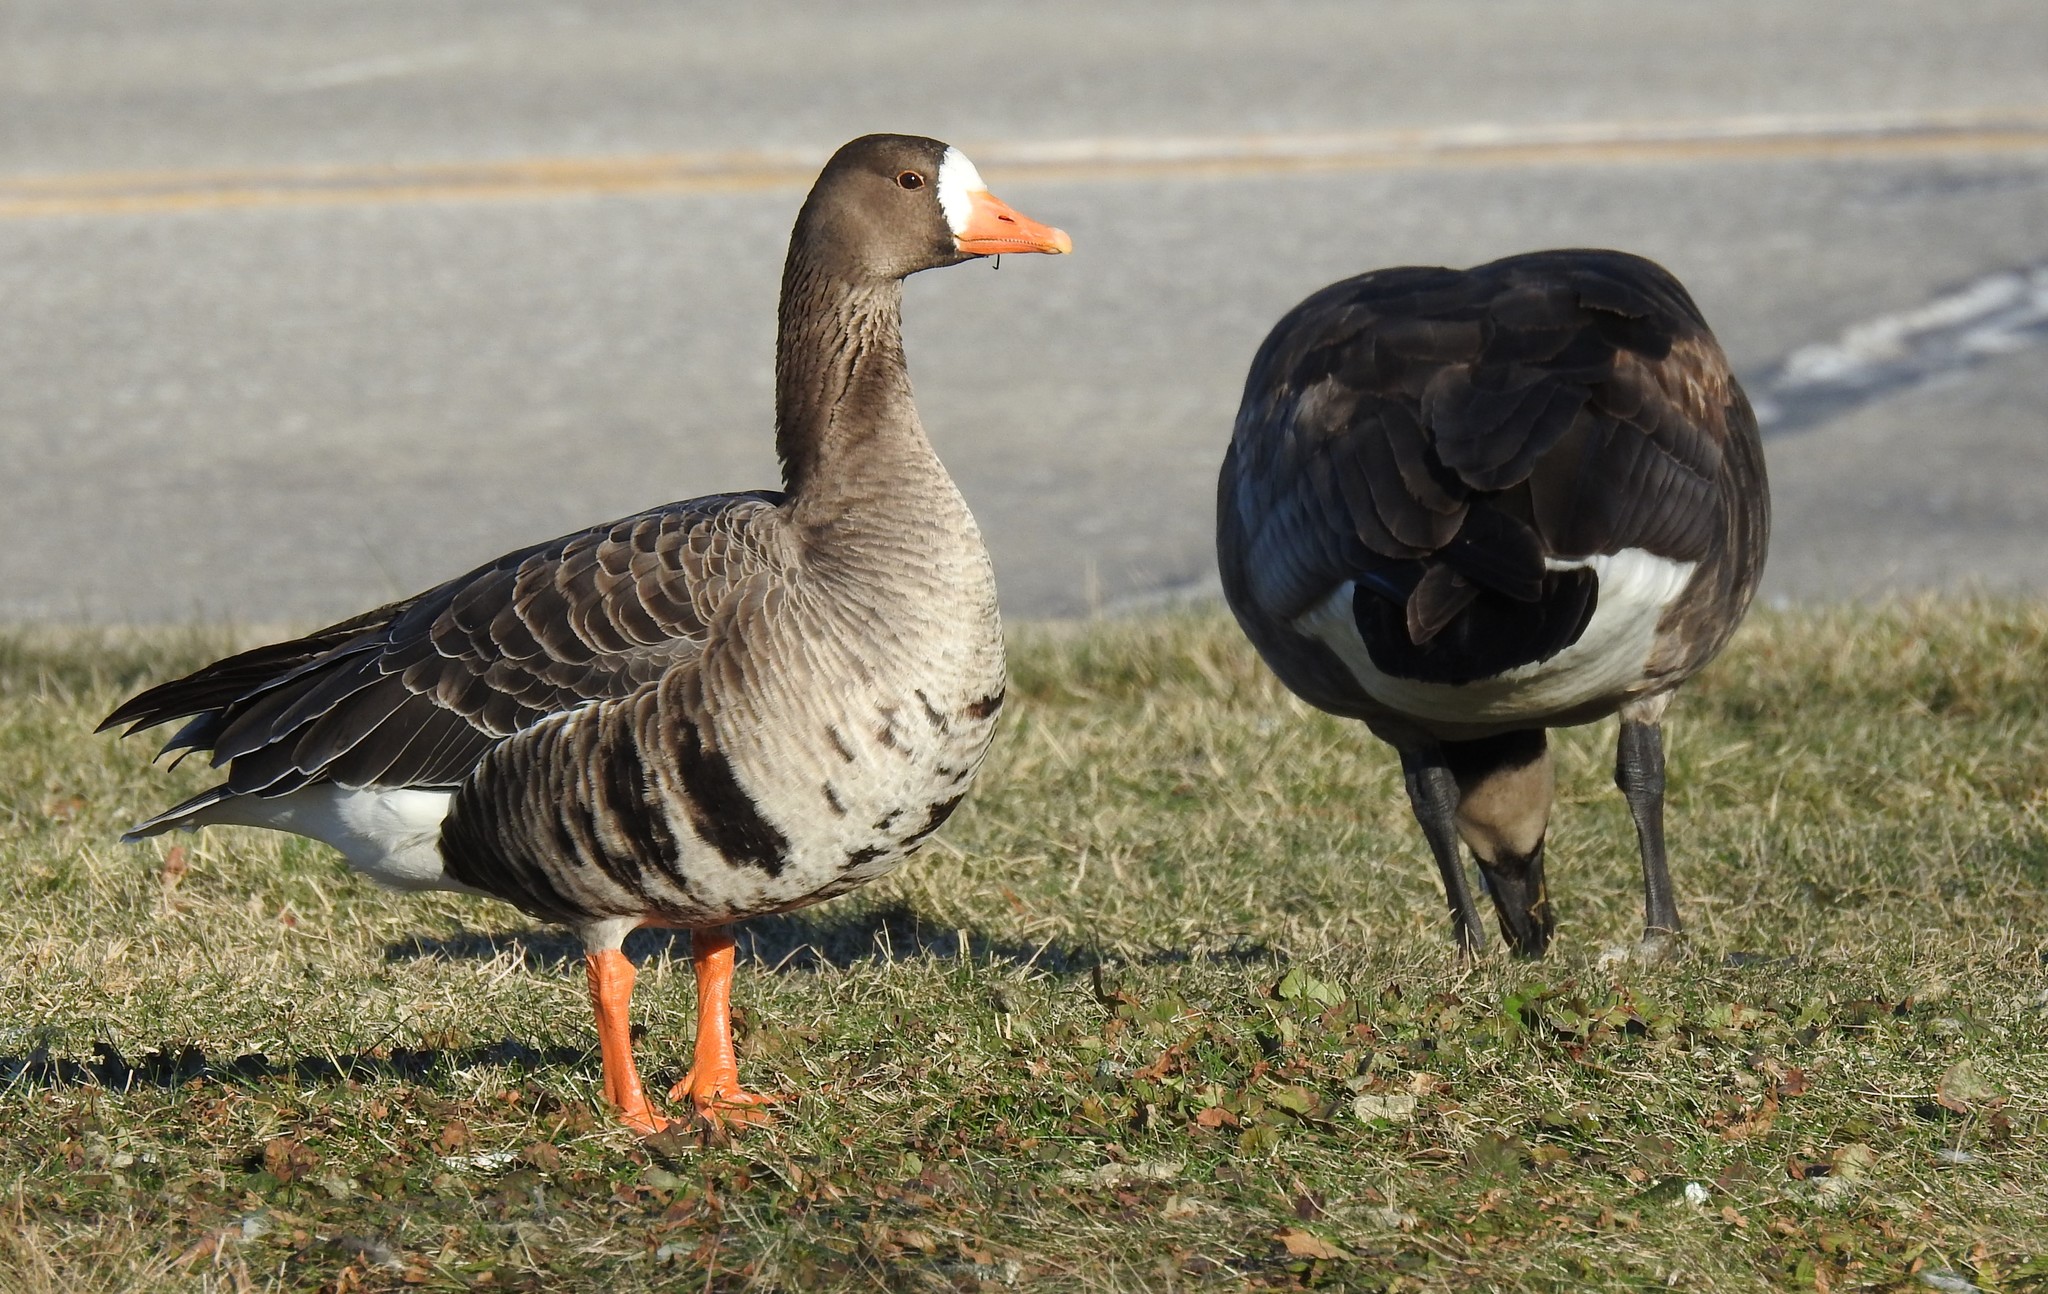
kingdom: Animalia
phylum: Chordata
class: Aves
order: Anseriformes
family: Anatidae
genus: Anser
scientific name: Anser albifrons
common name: Greater white-fronted goose
